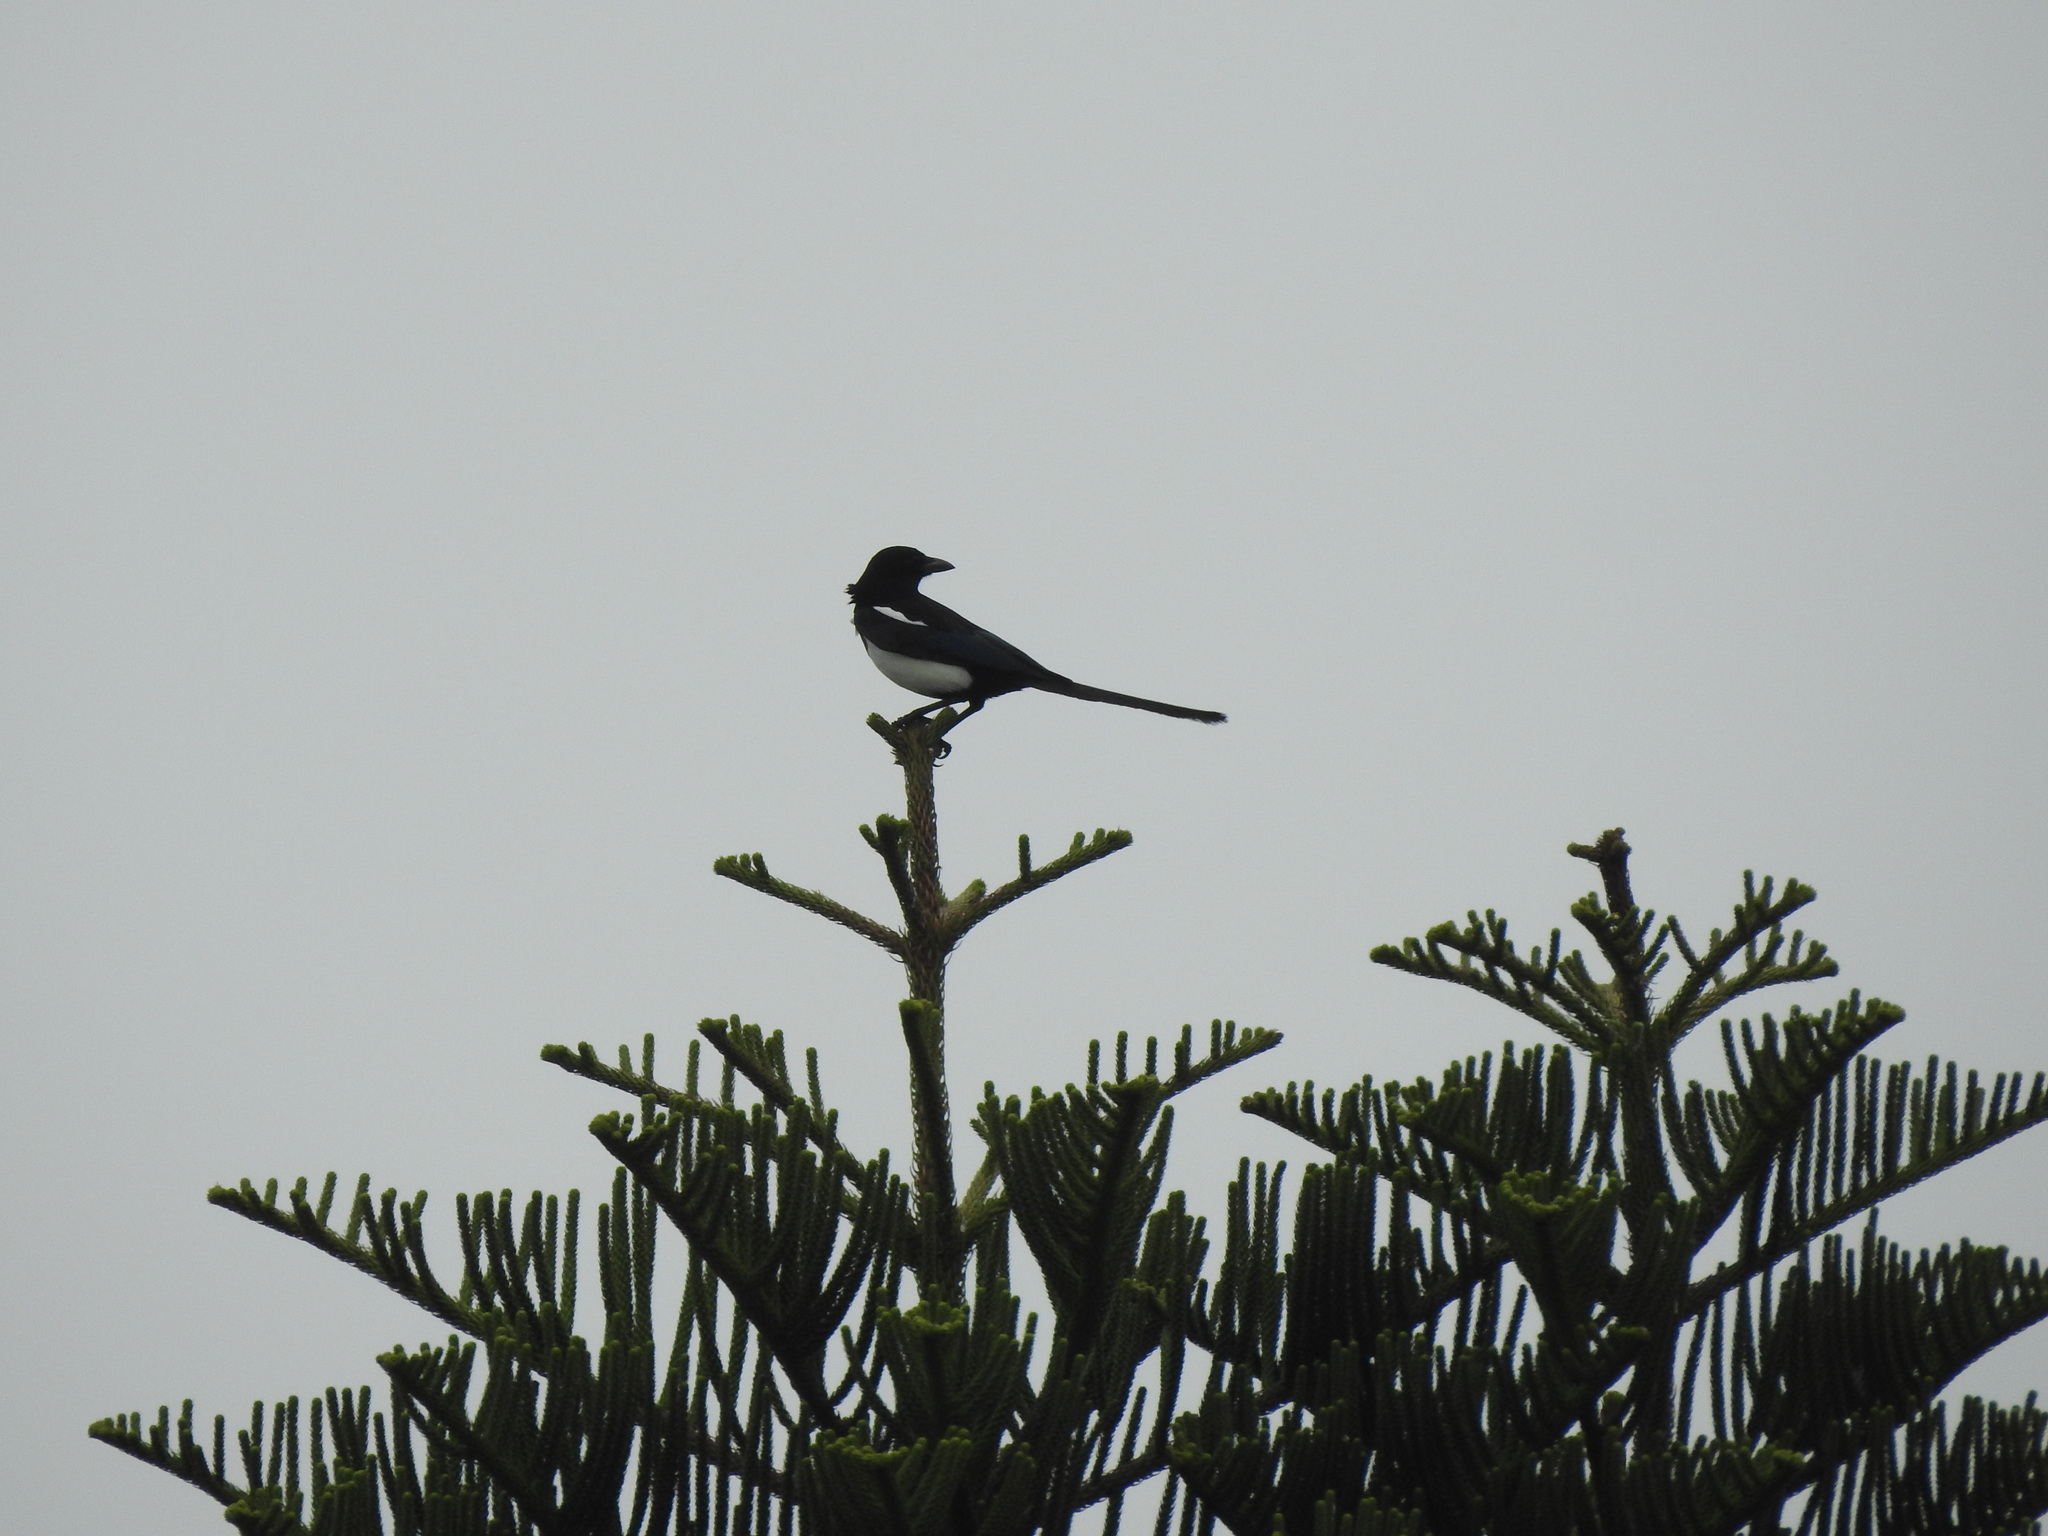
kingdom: Animalia
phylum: Chordata
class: Aves
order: Passeriformes
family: Corvidae
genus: Pica
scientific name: Pica serica
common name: Oriental magpie
